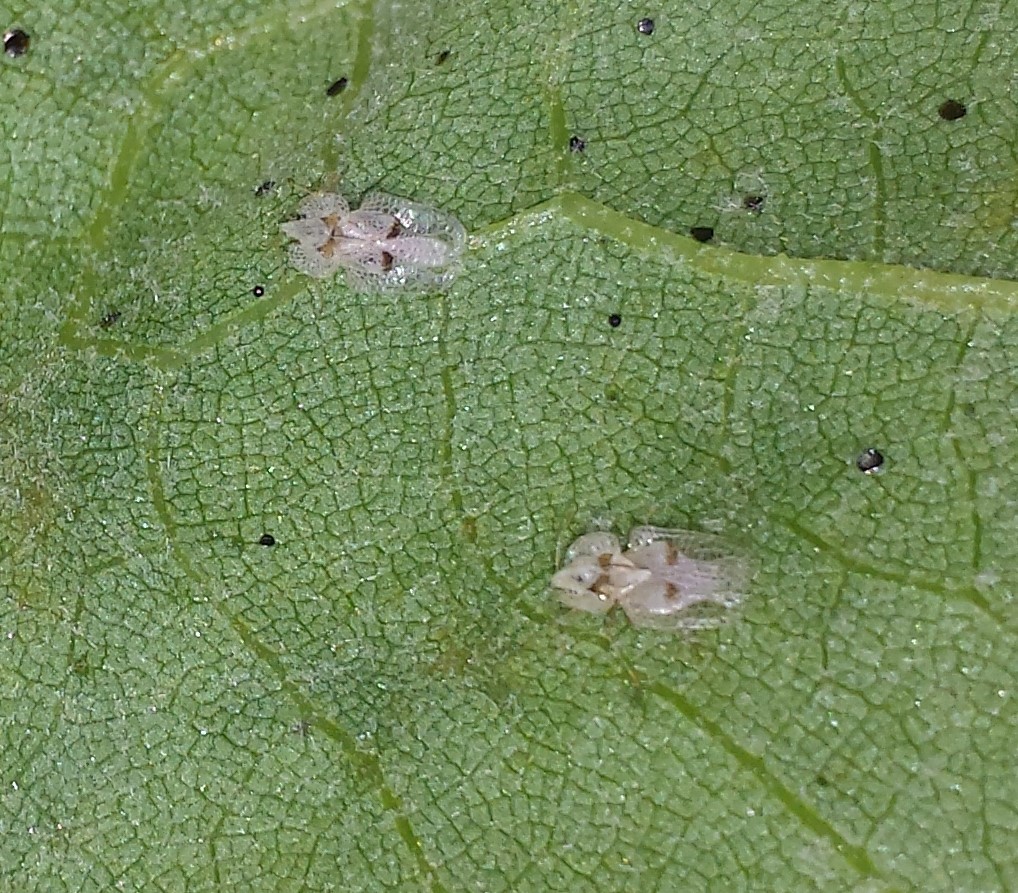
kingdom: Animalia
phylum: Arthropoda
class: Insecta
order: Hemiptera
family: Tingidae
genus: Corythucha
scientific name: Corythucha ciliata
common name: Sycamore lace bug
